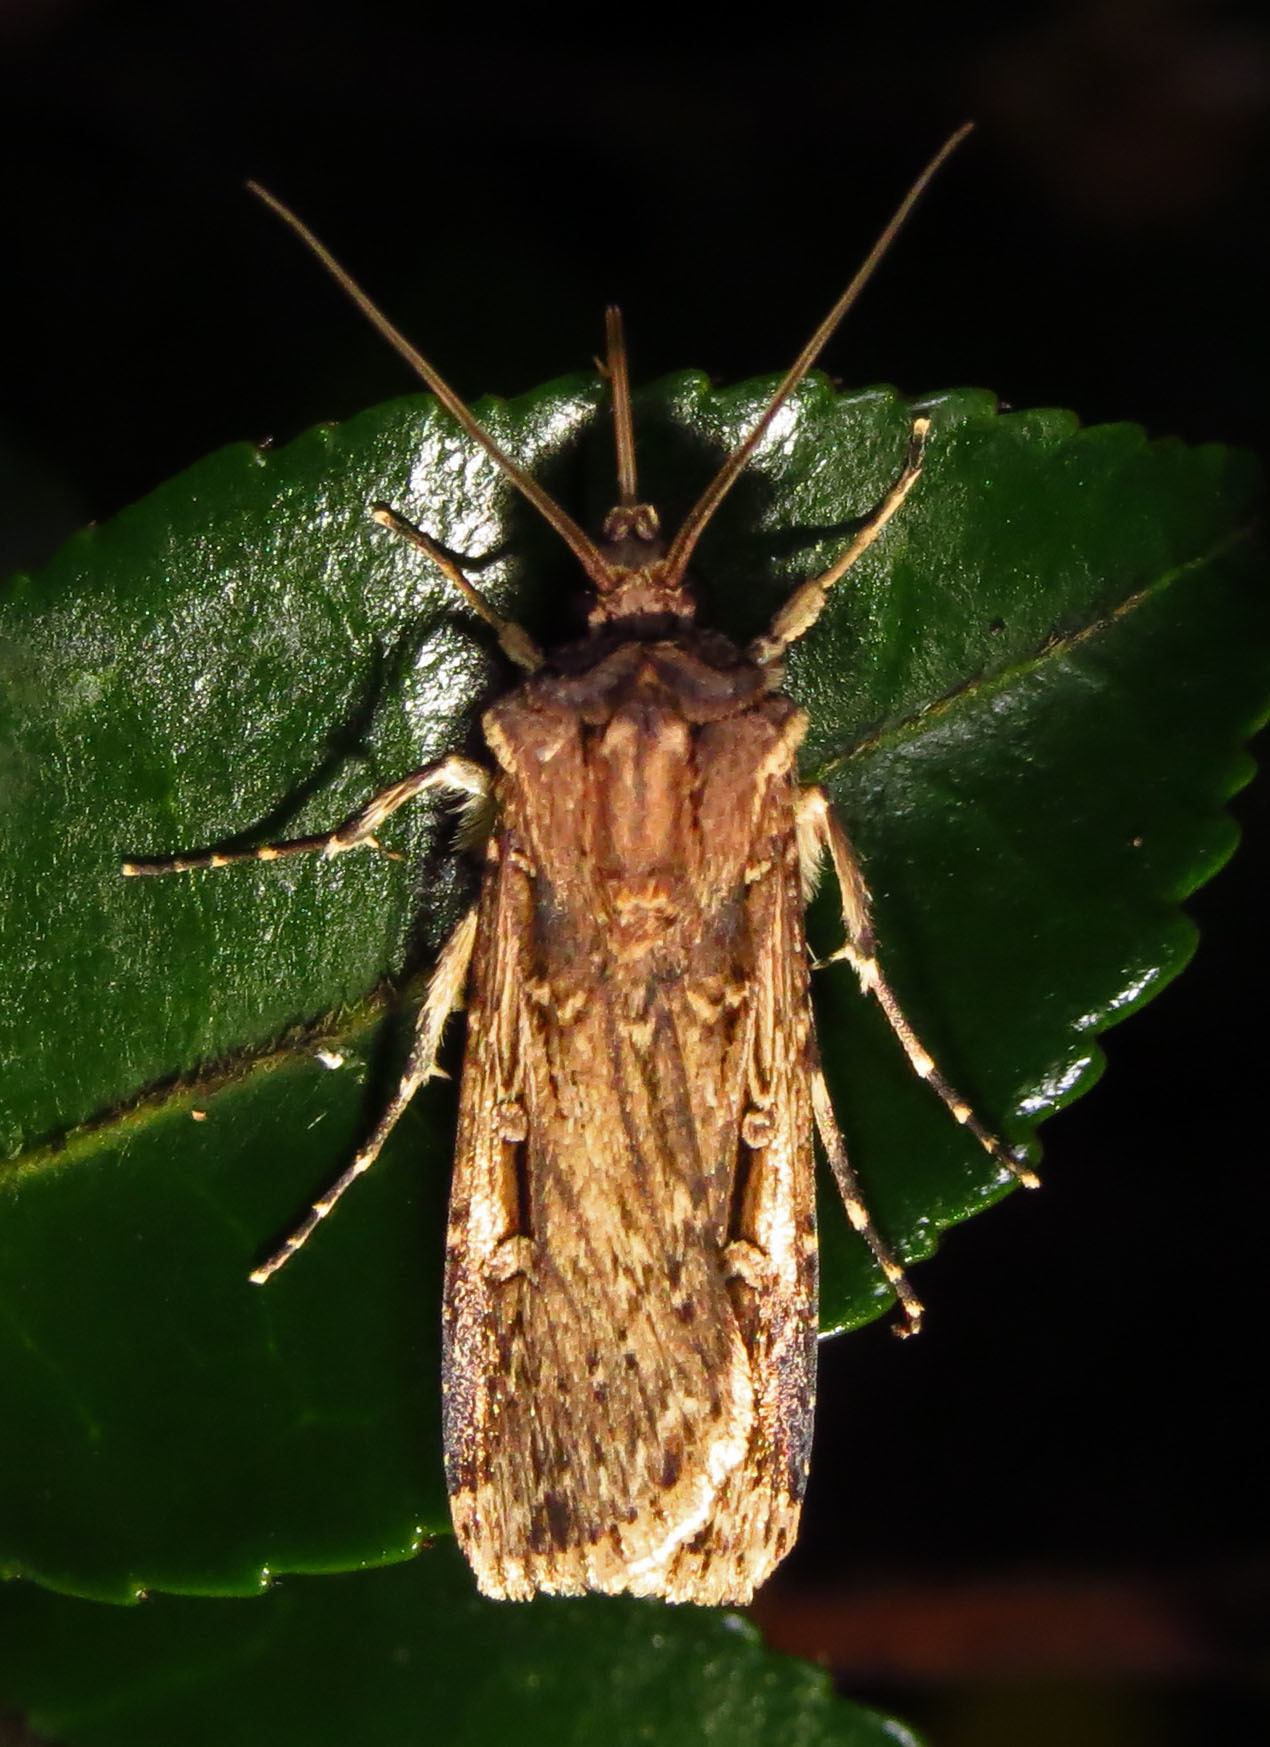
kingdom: Animalia
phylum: Arthropoda
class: Insecta
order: Lepidoptera
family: Noctuidae
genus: Feltia
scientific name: Feltia subterranea
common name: Granulate cutworm
